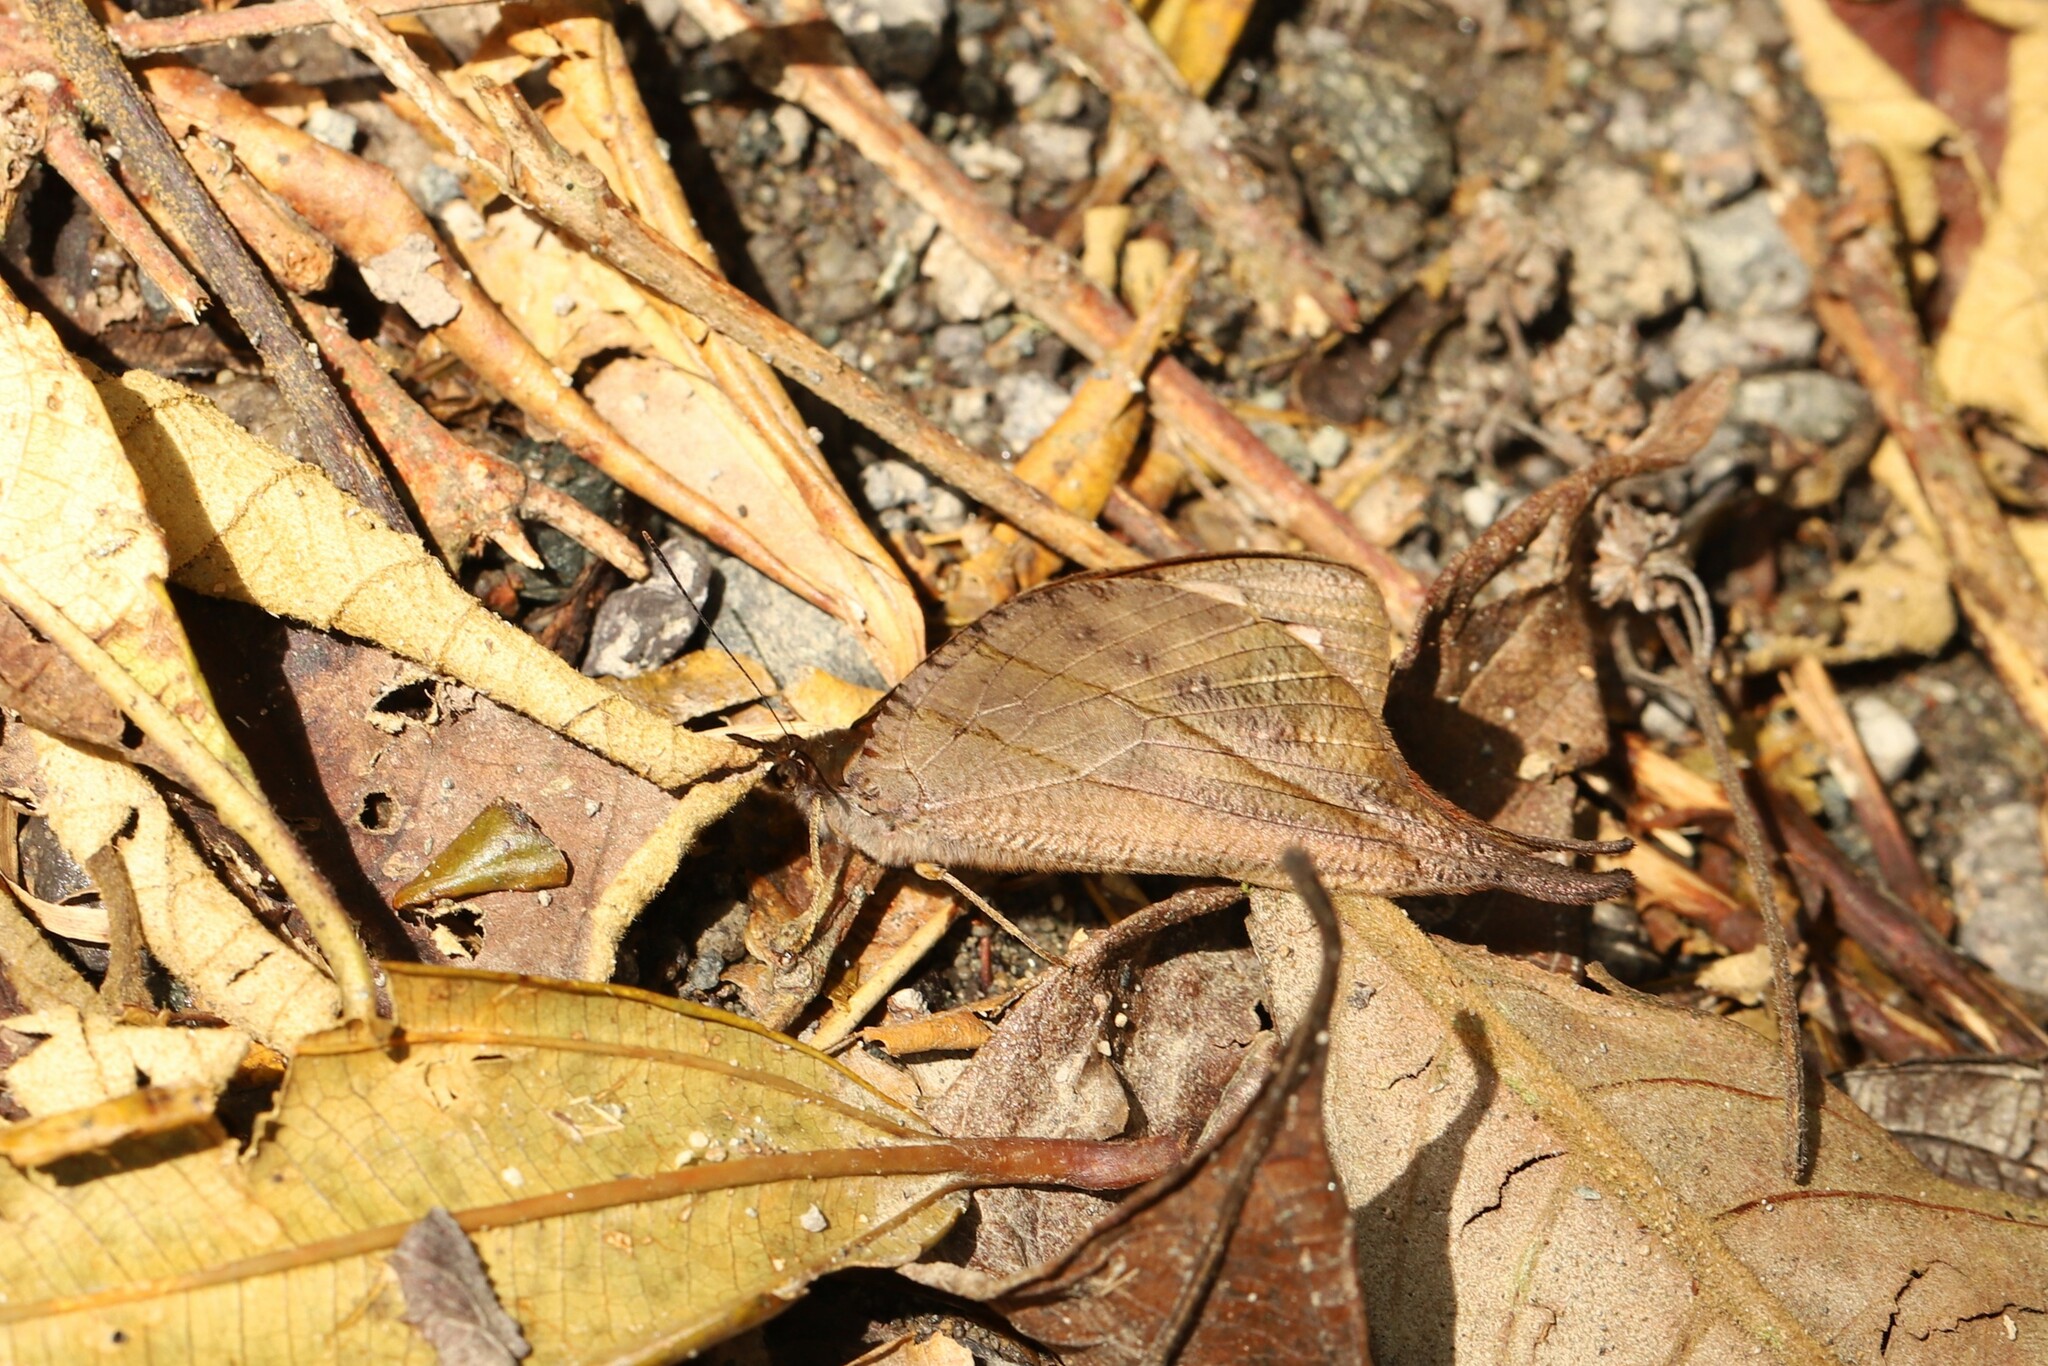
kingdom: Animalia
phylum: Arthropoda
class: Insecta
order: Lepidoptera
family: Nymphalidae
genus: Corades
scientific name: Corades chelonis
